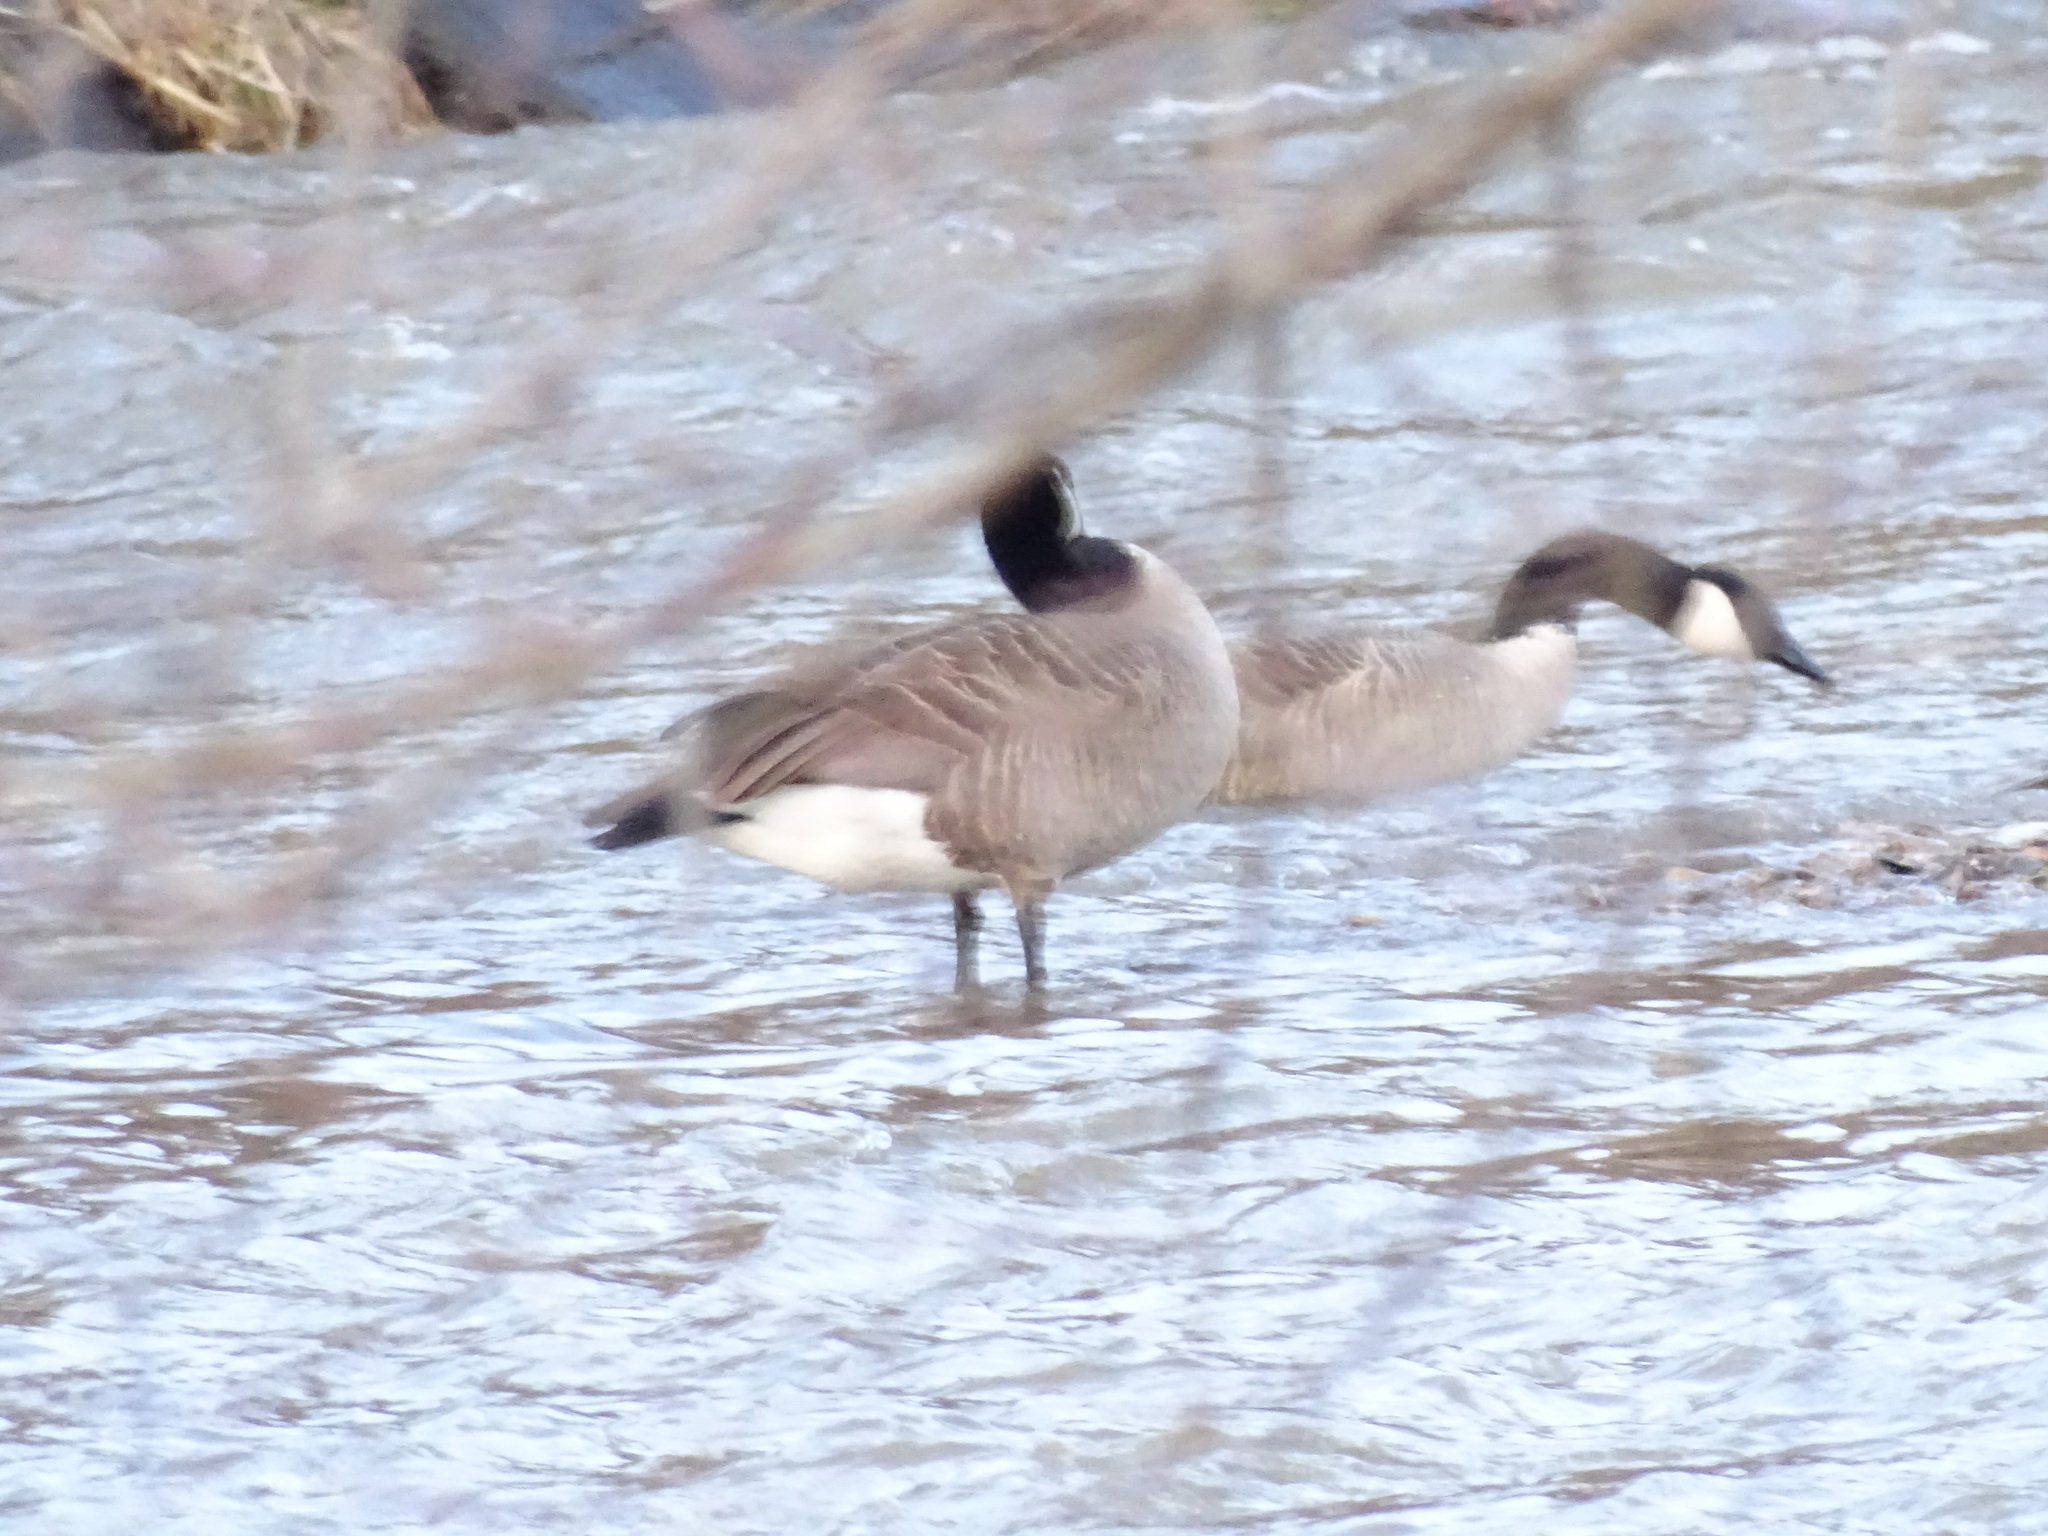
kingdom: Animalia
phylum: Chordata
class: Aves
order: Anseriformes
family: Anatidae
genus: Branta
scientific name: Branta canadensis
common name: Canada goose
